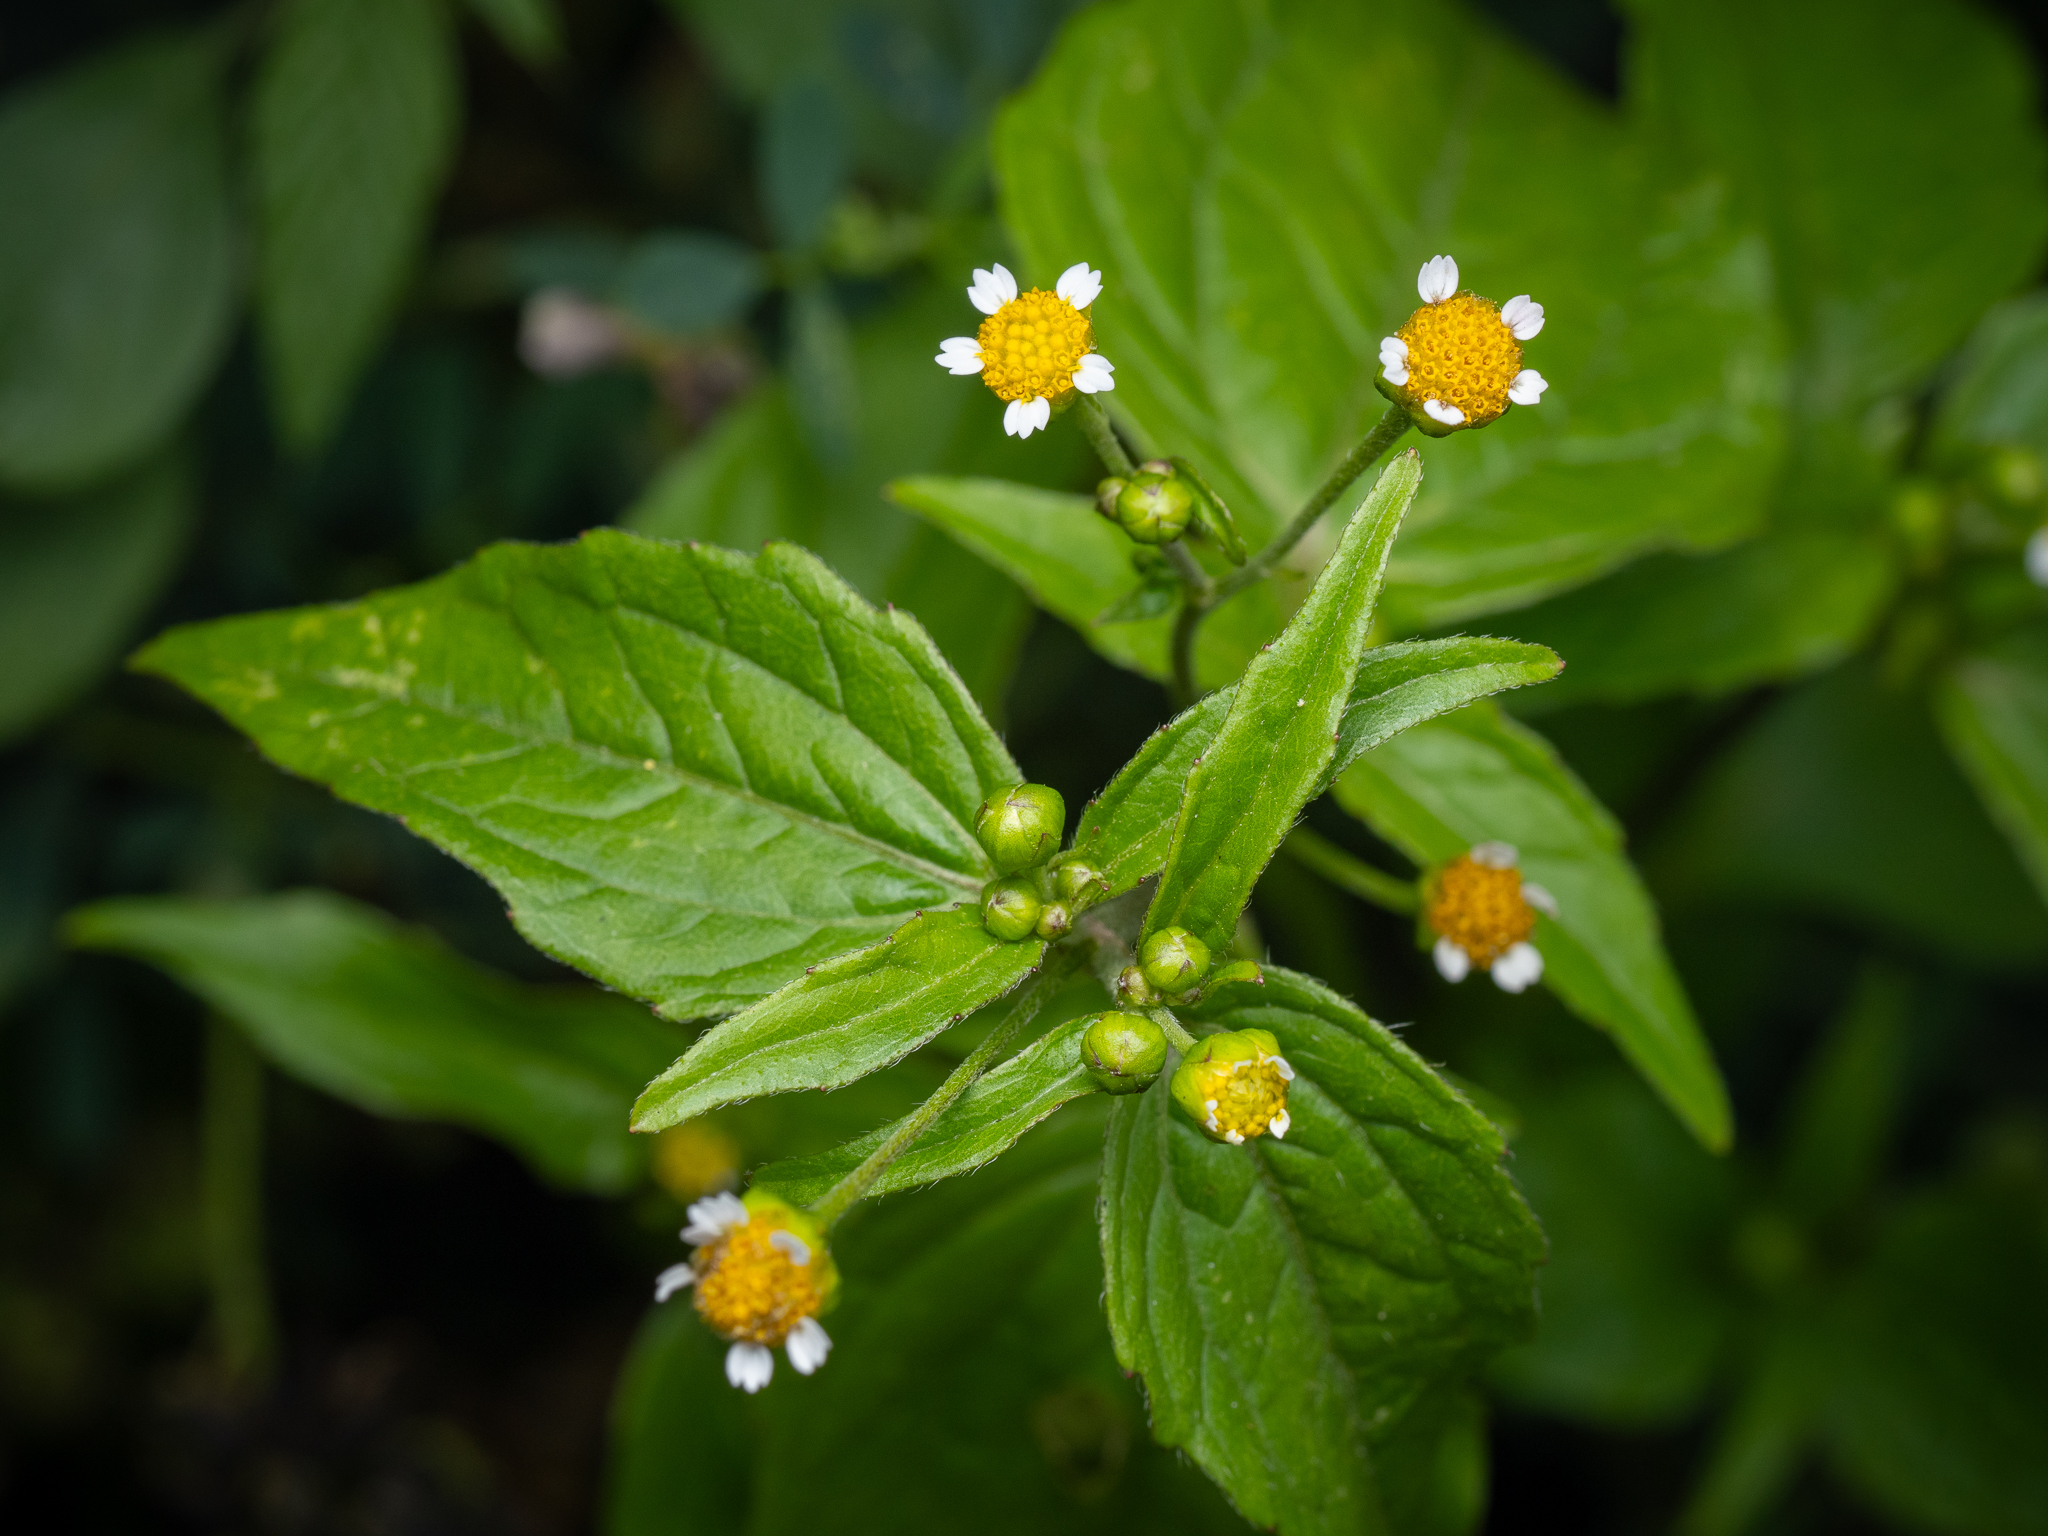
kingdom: Plantae
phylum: Tracheophyta
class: Magnoliopsida
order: Asterales
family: Asteraceae
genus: Galinsoga
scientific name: Galinsoga parviflora
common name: Gallant soldier
